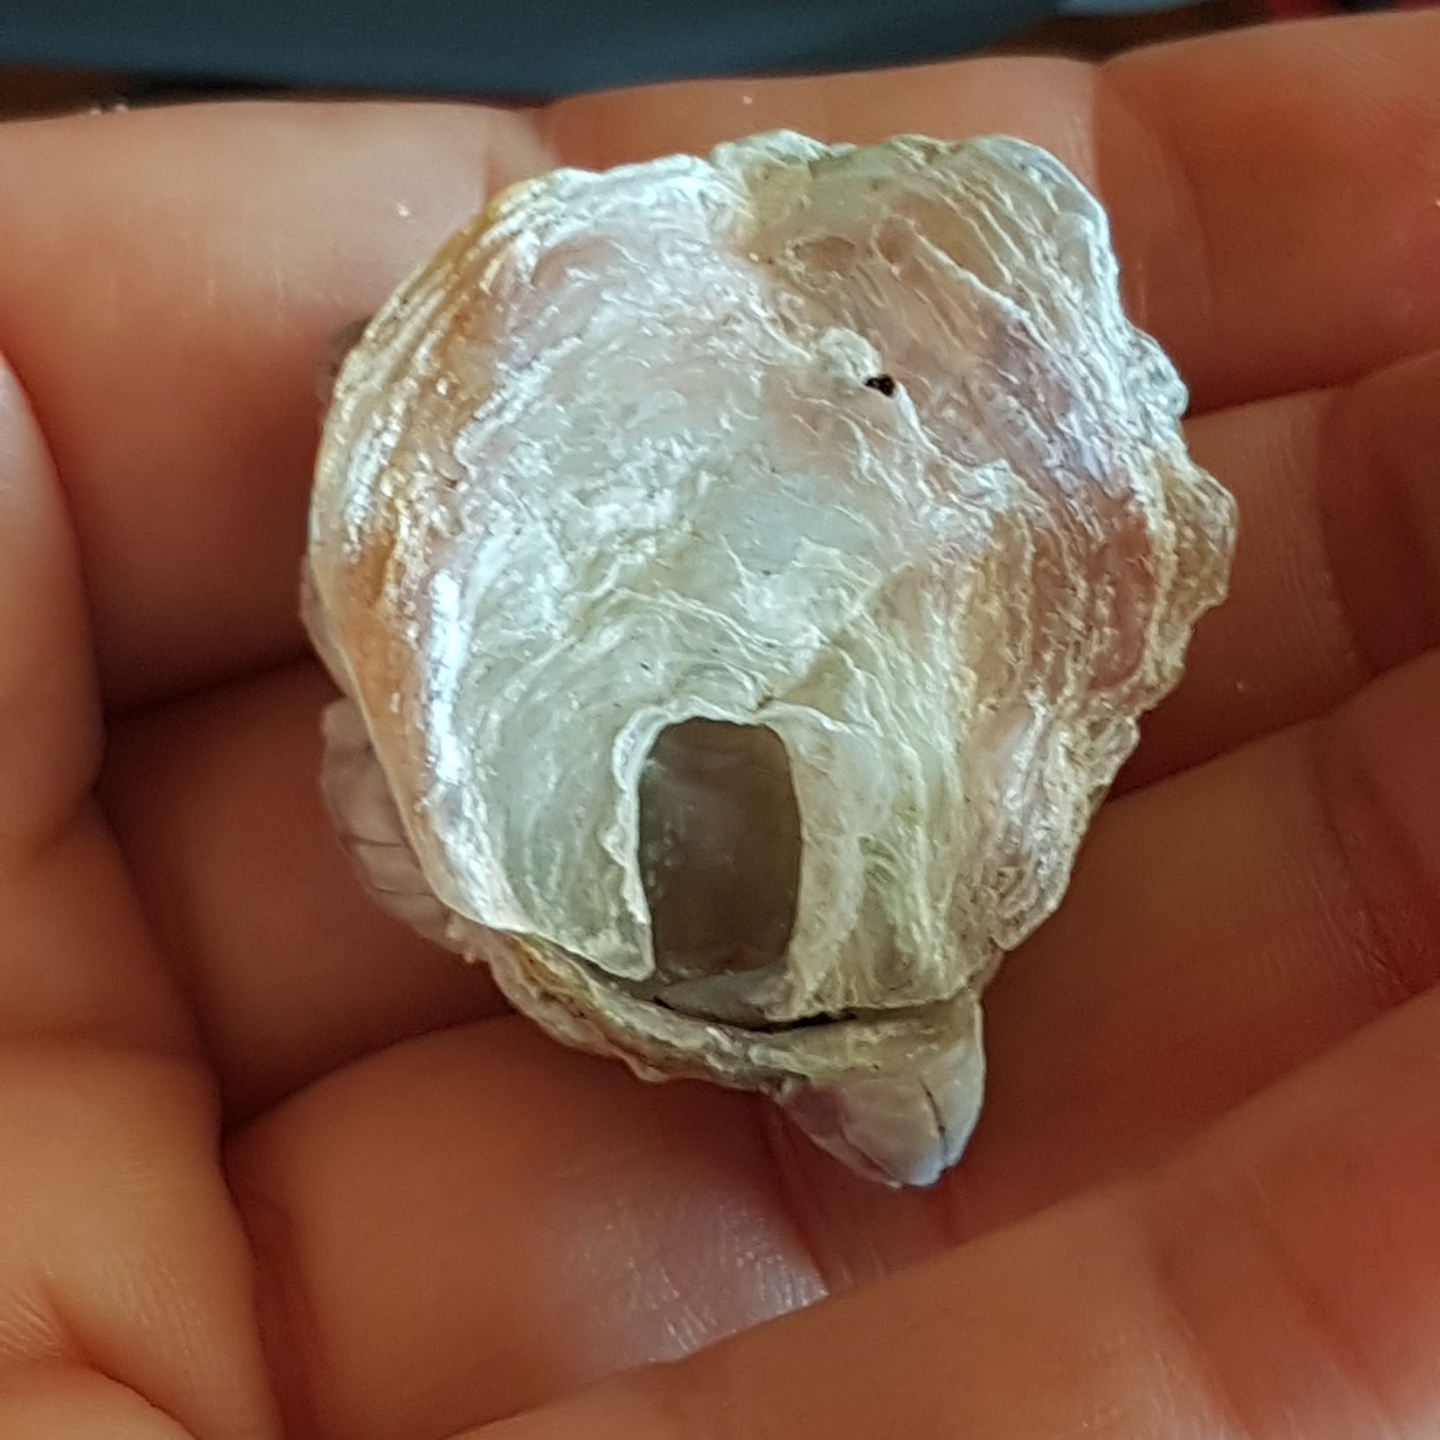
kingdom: Animalia
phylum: Mollusca
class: Bivalvia
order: Pectinida
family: Anomiidae
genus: Anomia
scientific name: Anomia ephippium
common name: Saddle oyster
